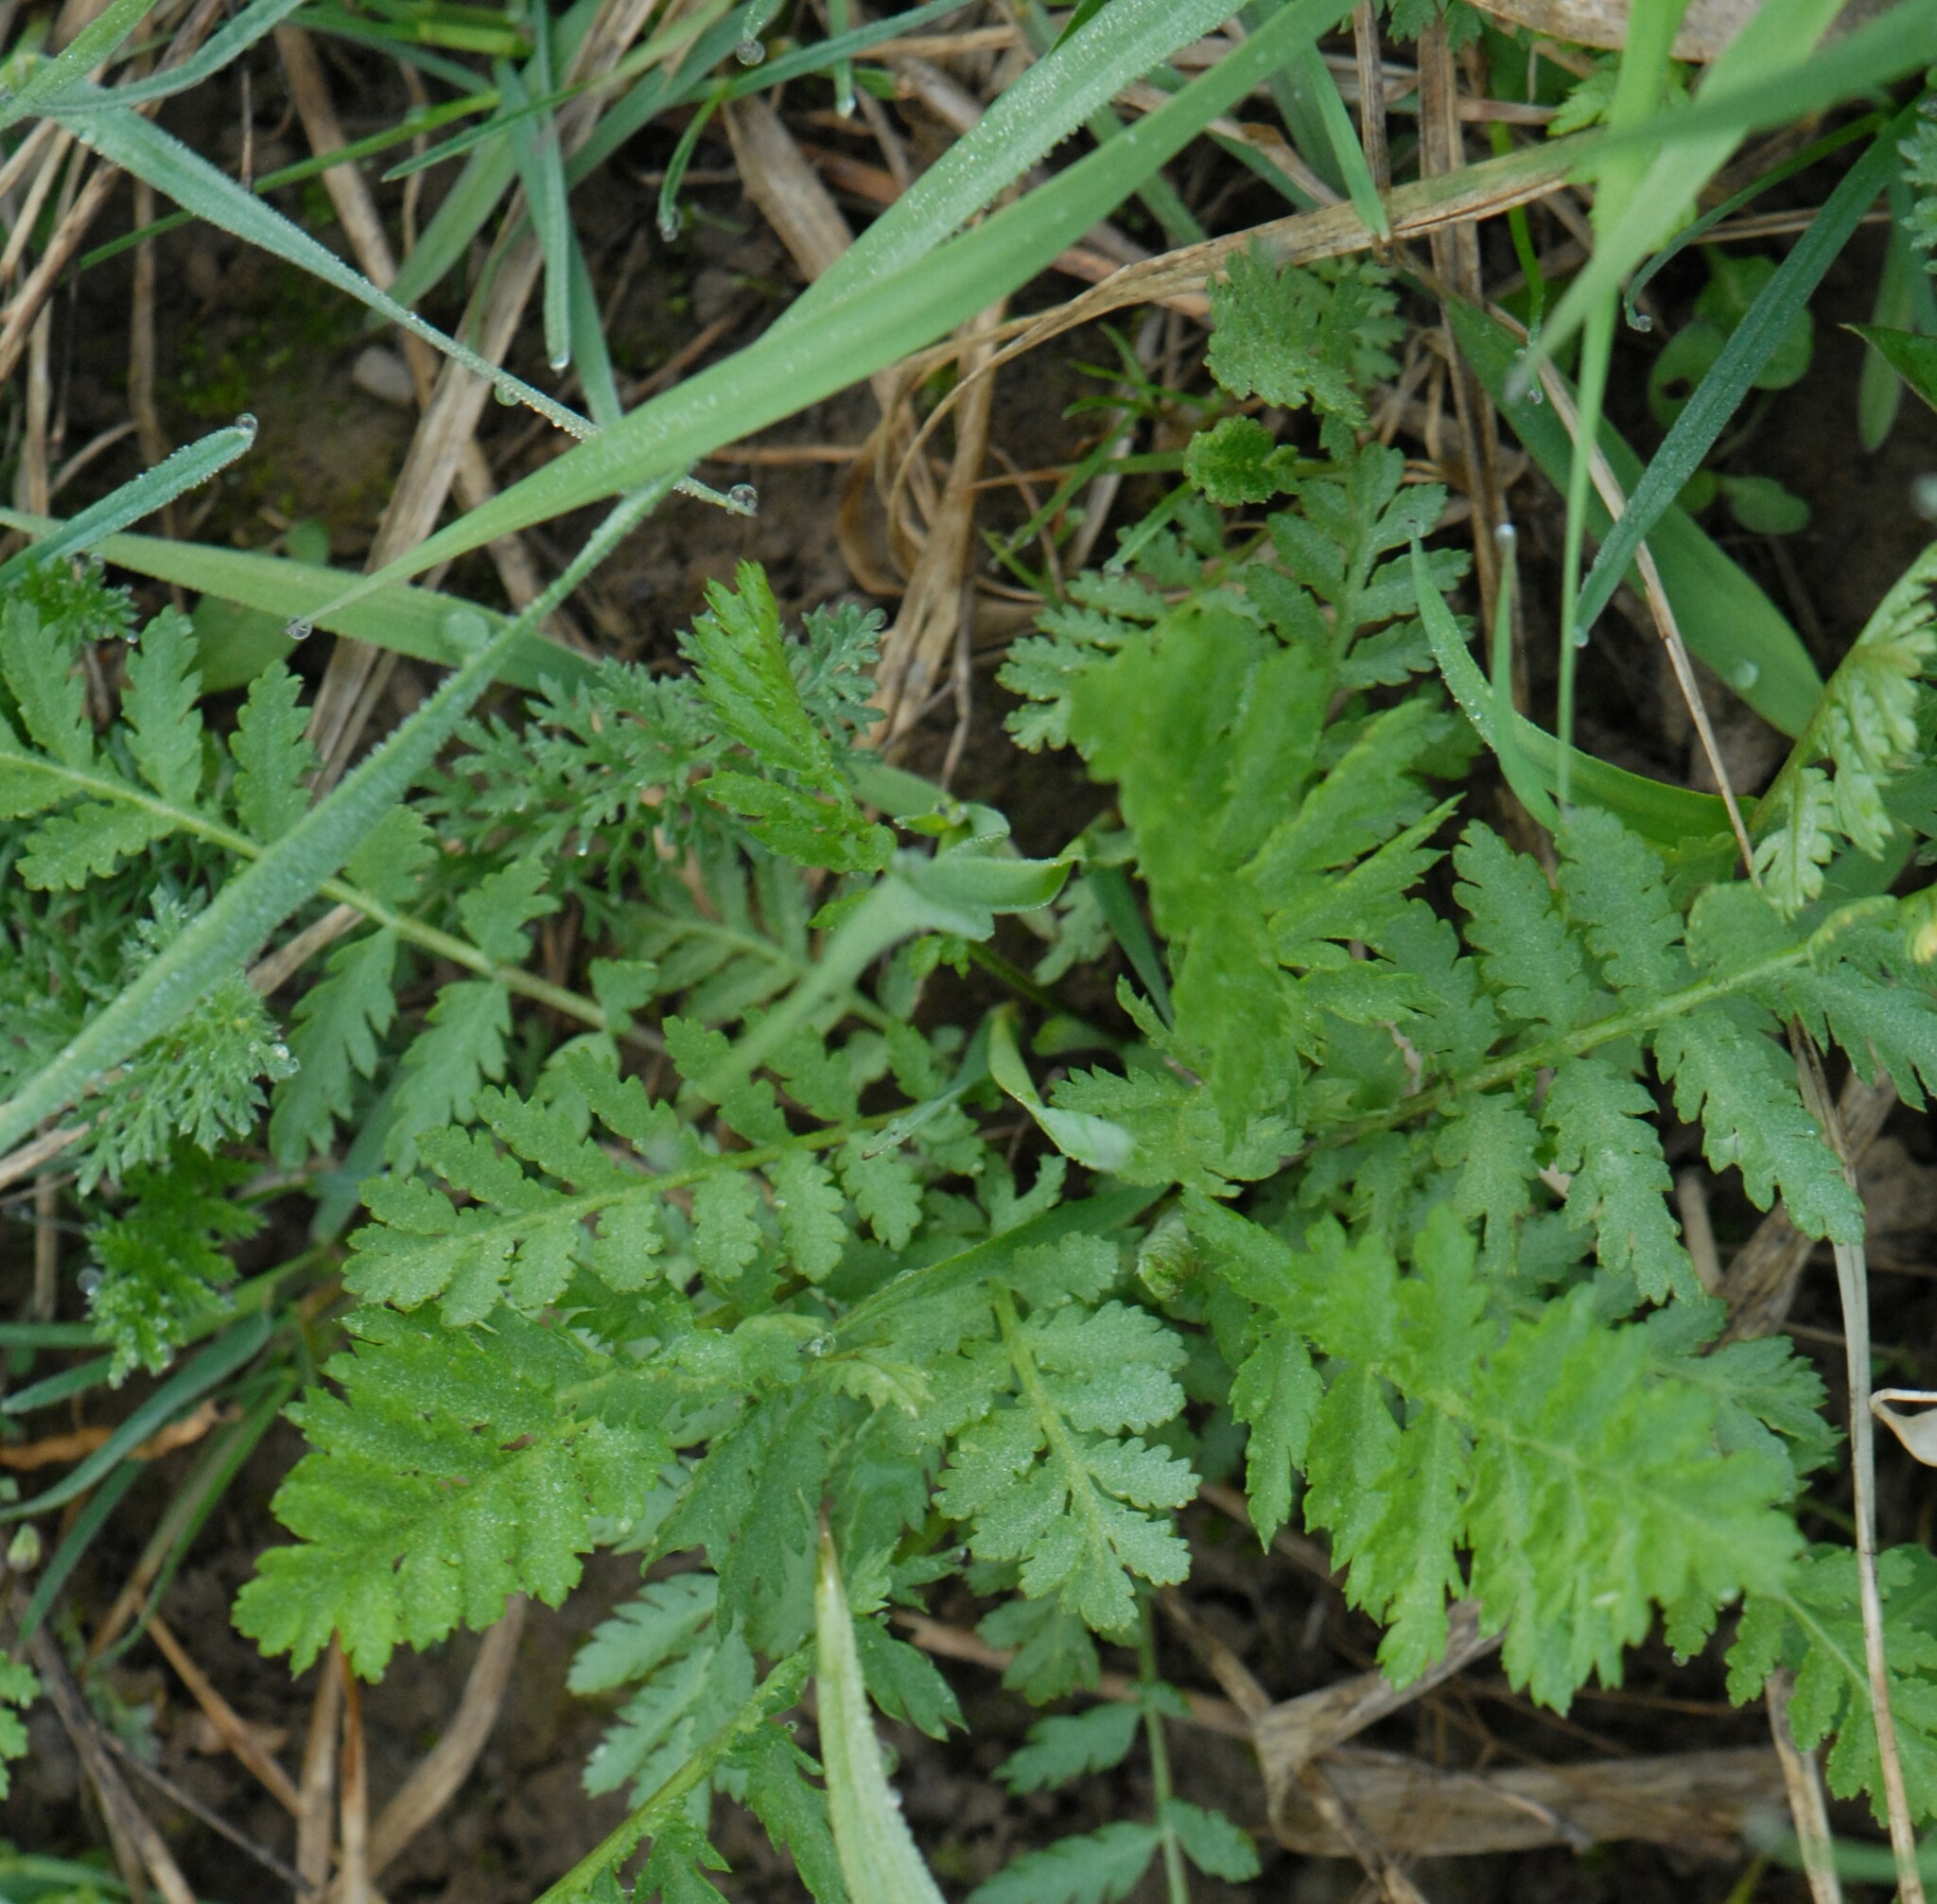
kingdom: Plantae
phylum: Tracheophyta
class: Magnoliopsida
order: Asterales
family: Asteraceae
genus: Tanacetum
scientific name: Tanacetum vulgare
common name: Common tansy
